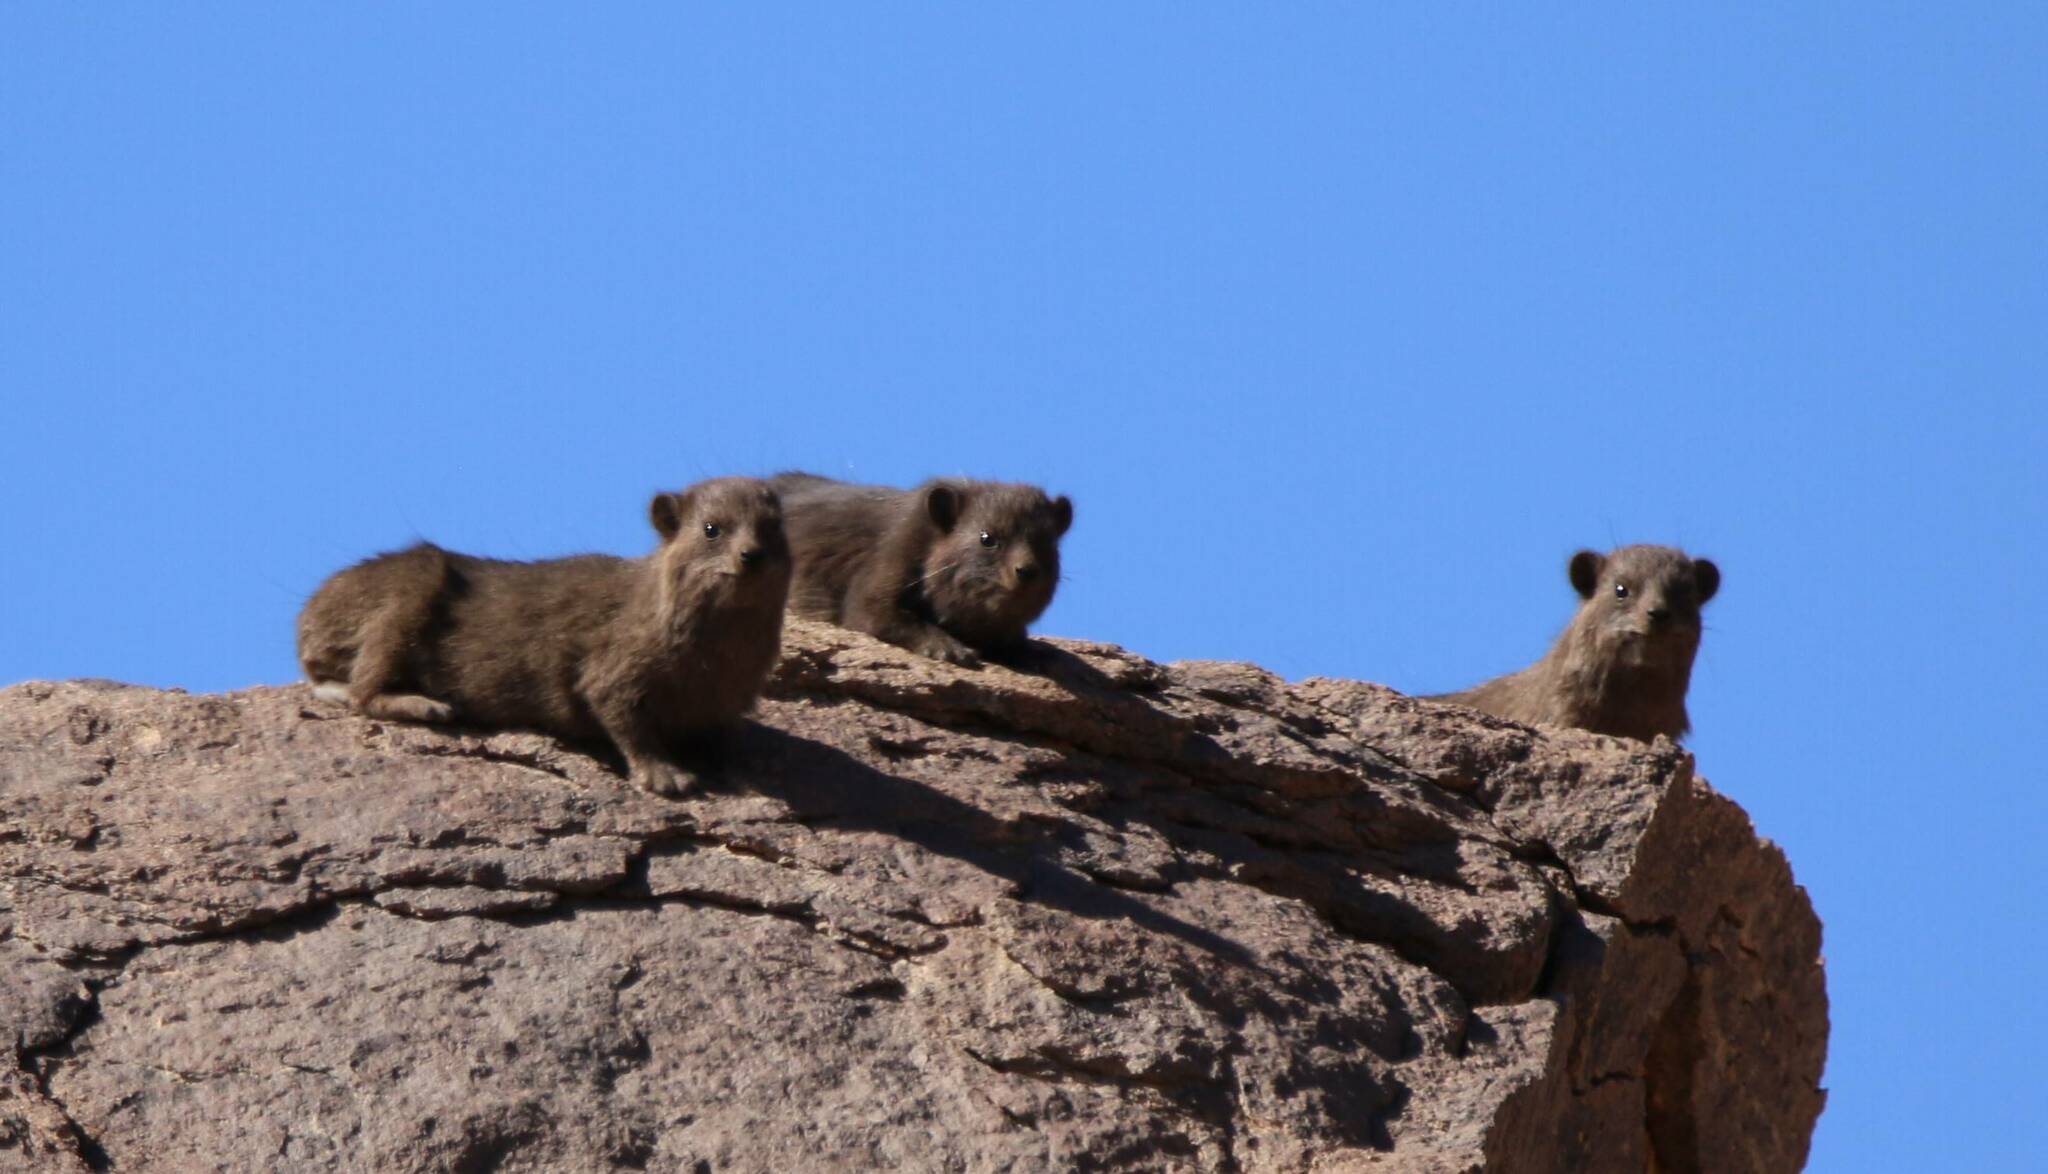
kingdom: Animalia
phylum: Chordata
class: Mammalia
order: Hyracoidea
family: Procaviidae
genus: Procavia
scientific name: Procavia capensis
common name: Rock hyrax
